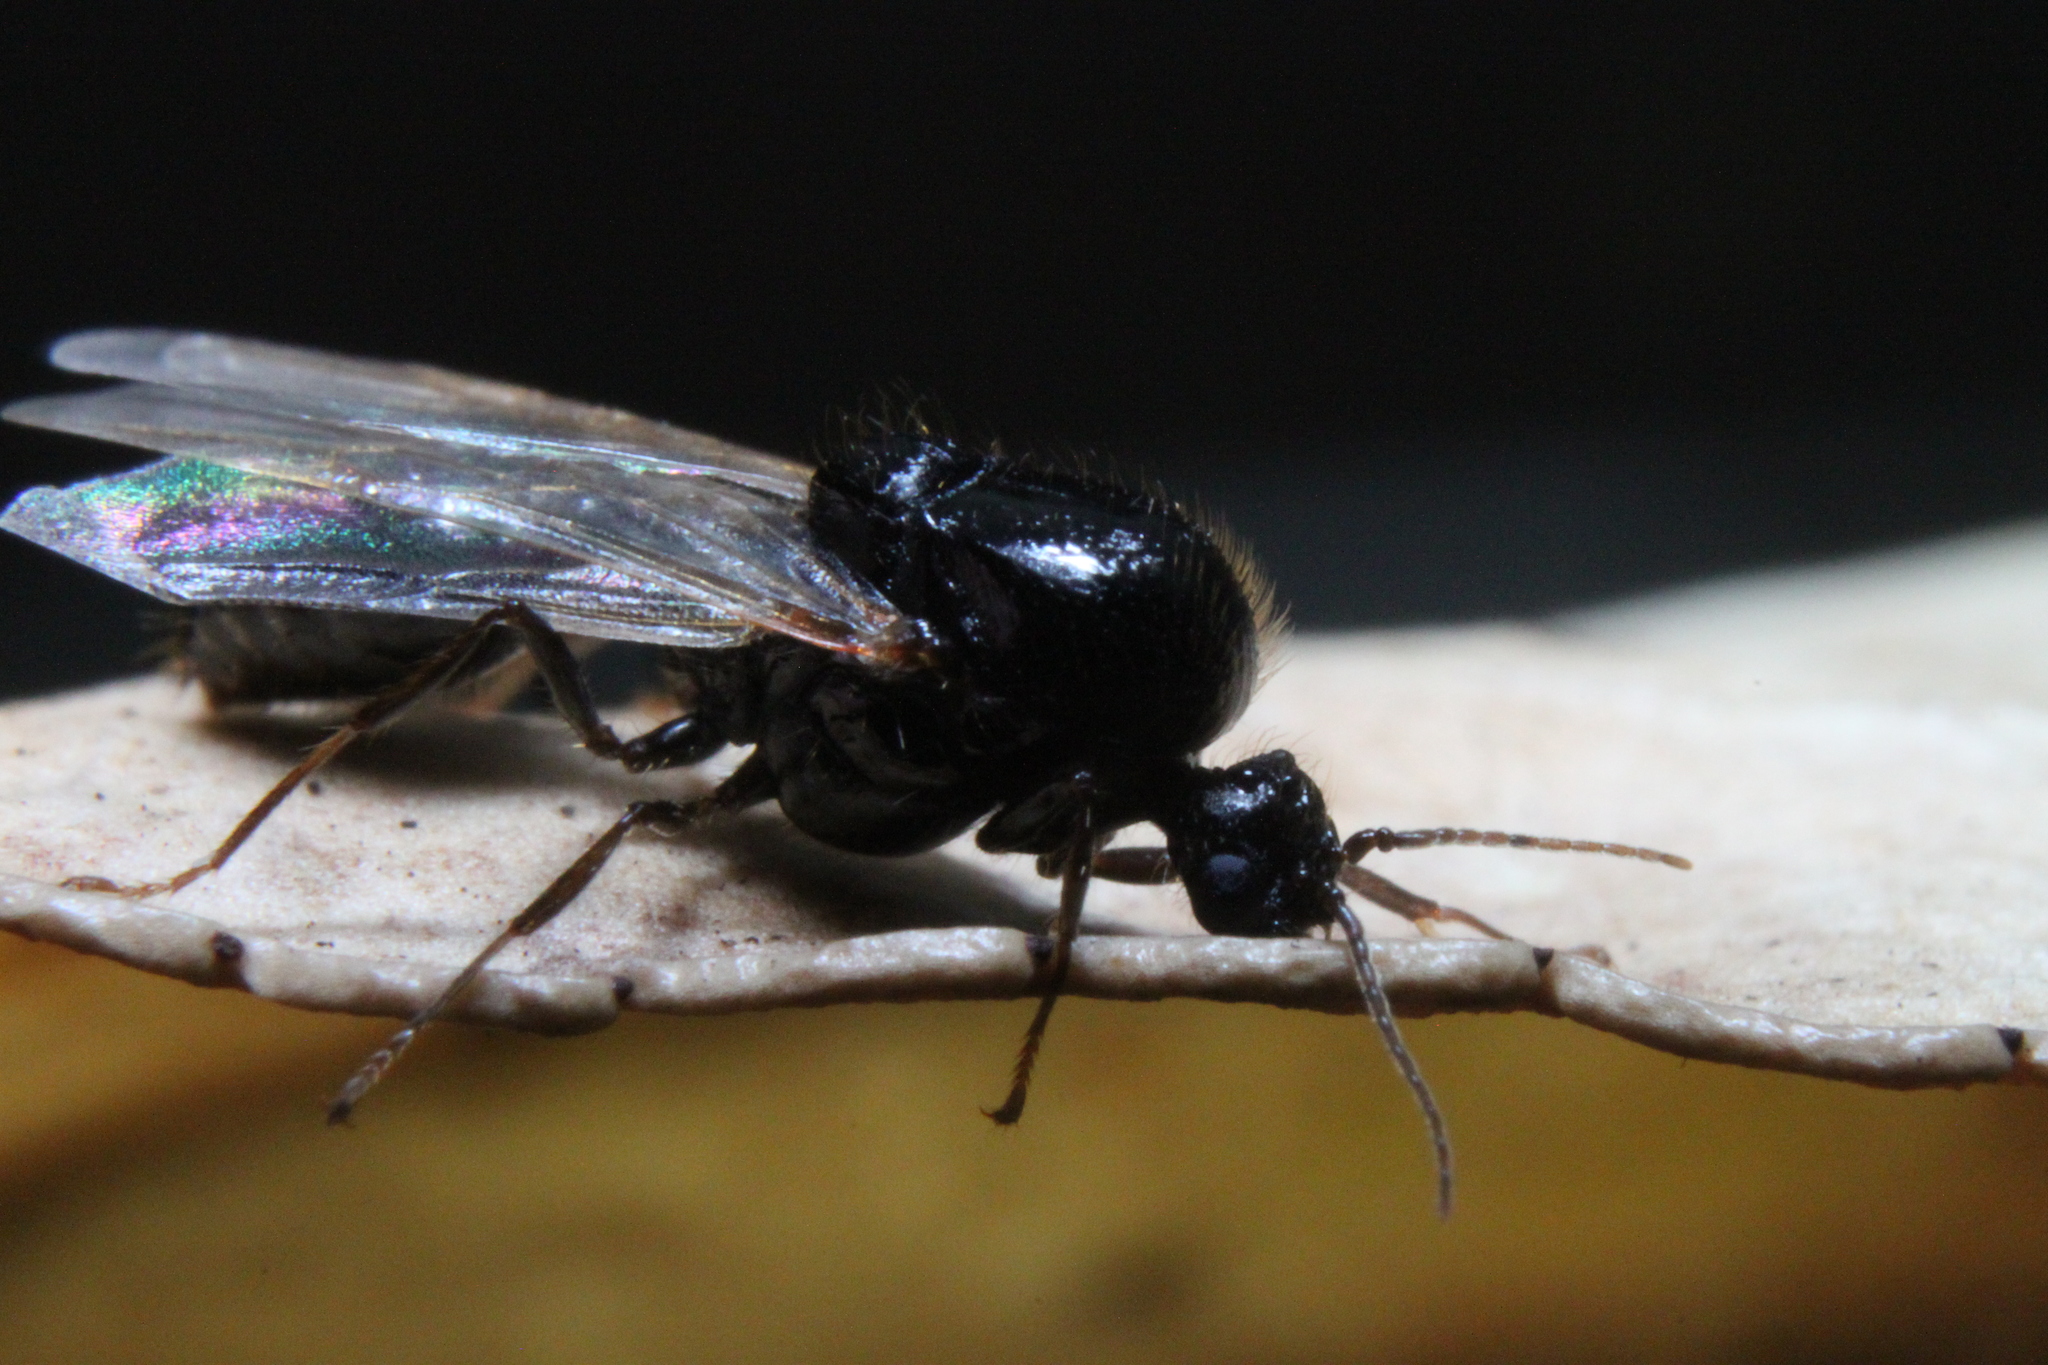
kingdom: Animalia
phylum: Arthropoda
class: Insecta
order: Hymenoptera
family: Formicidae
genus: Solenopsis
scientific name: Solenopsis invicta
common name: Red imported fire ant
